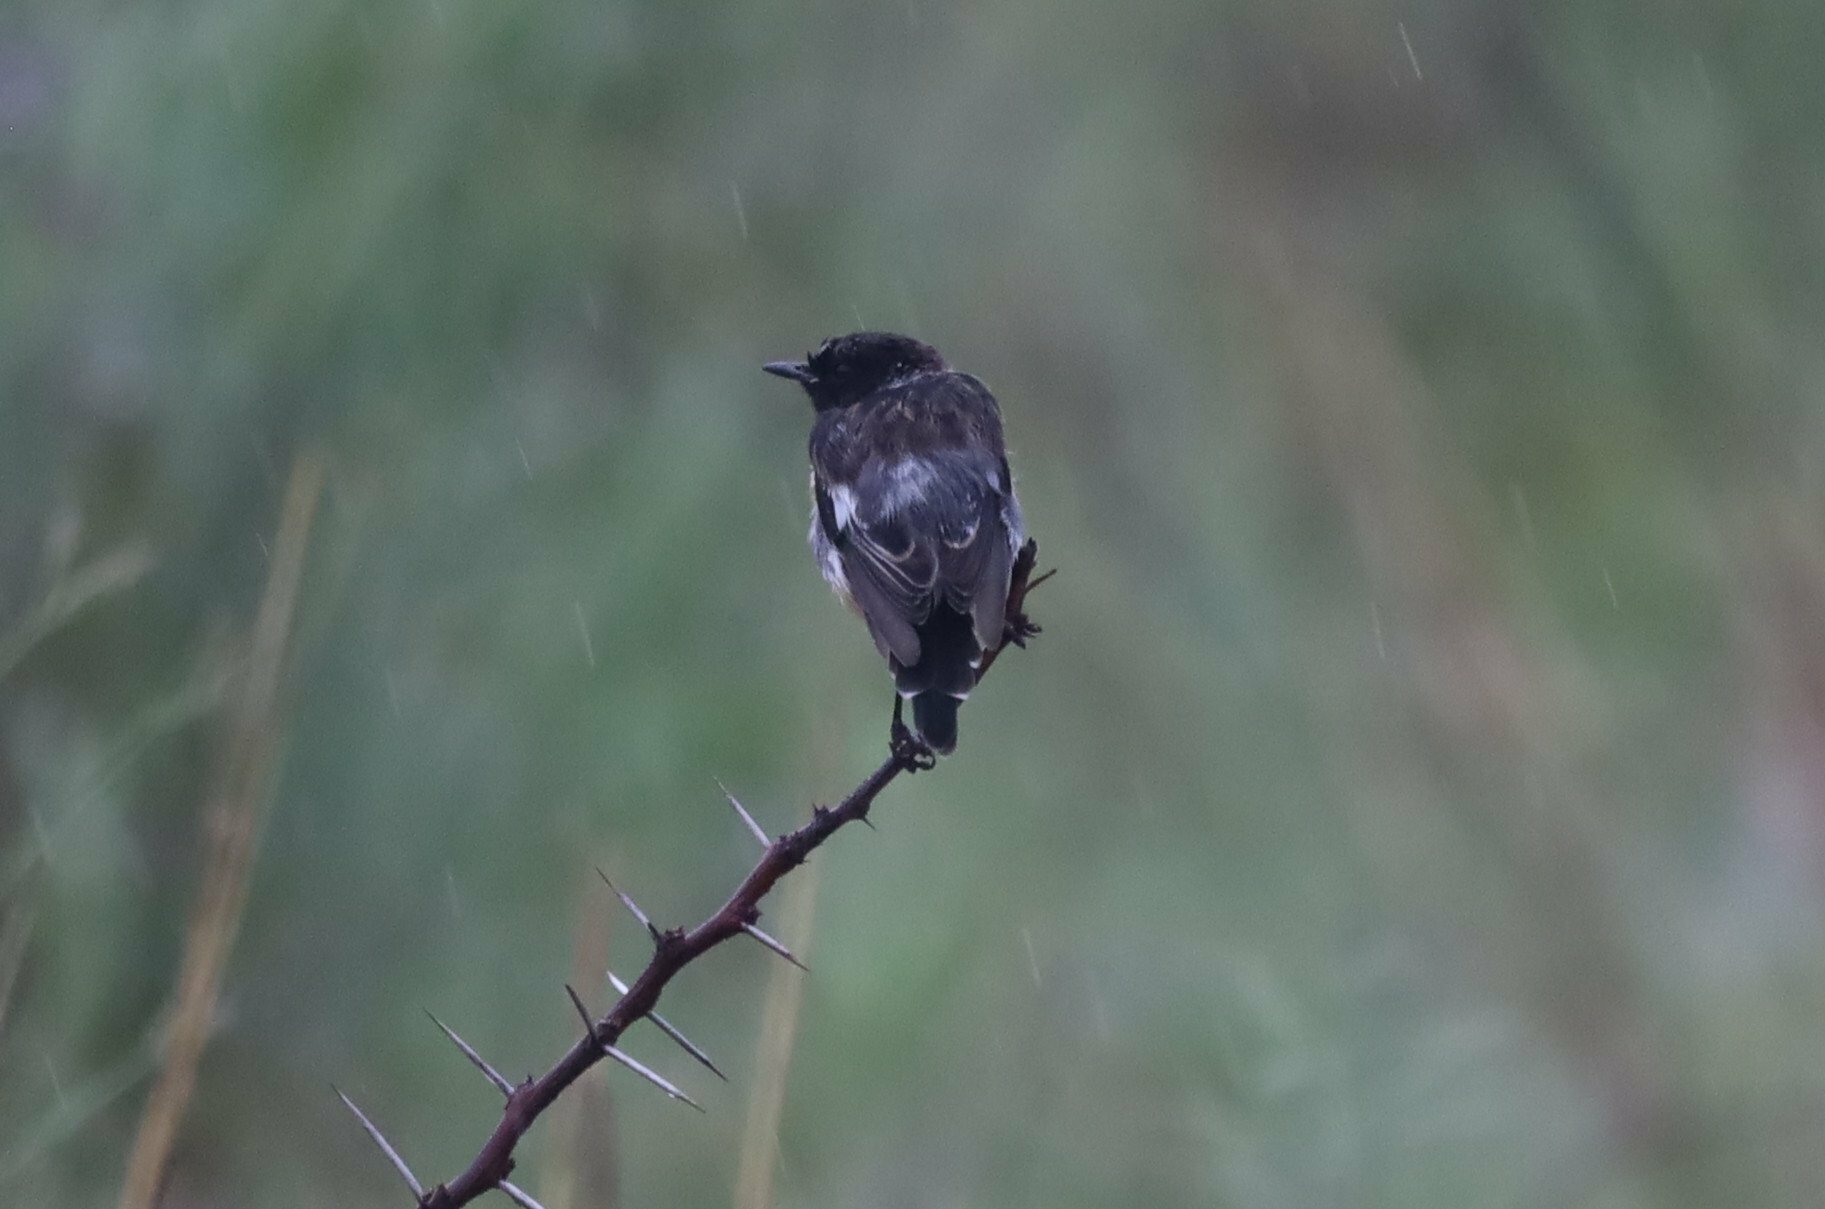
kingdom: Animalia
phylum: Chordata
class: Aves
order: Passeriformes
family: Muscicapidae
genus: Saxicola
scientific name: Saxicola torquatus
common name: African stonechat
